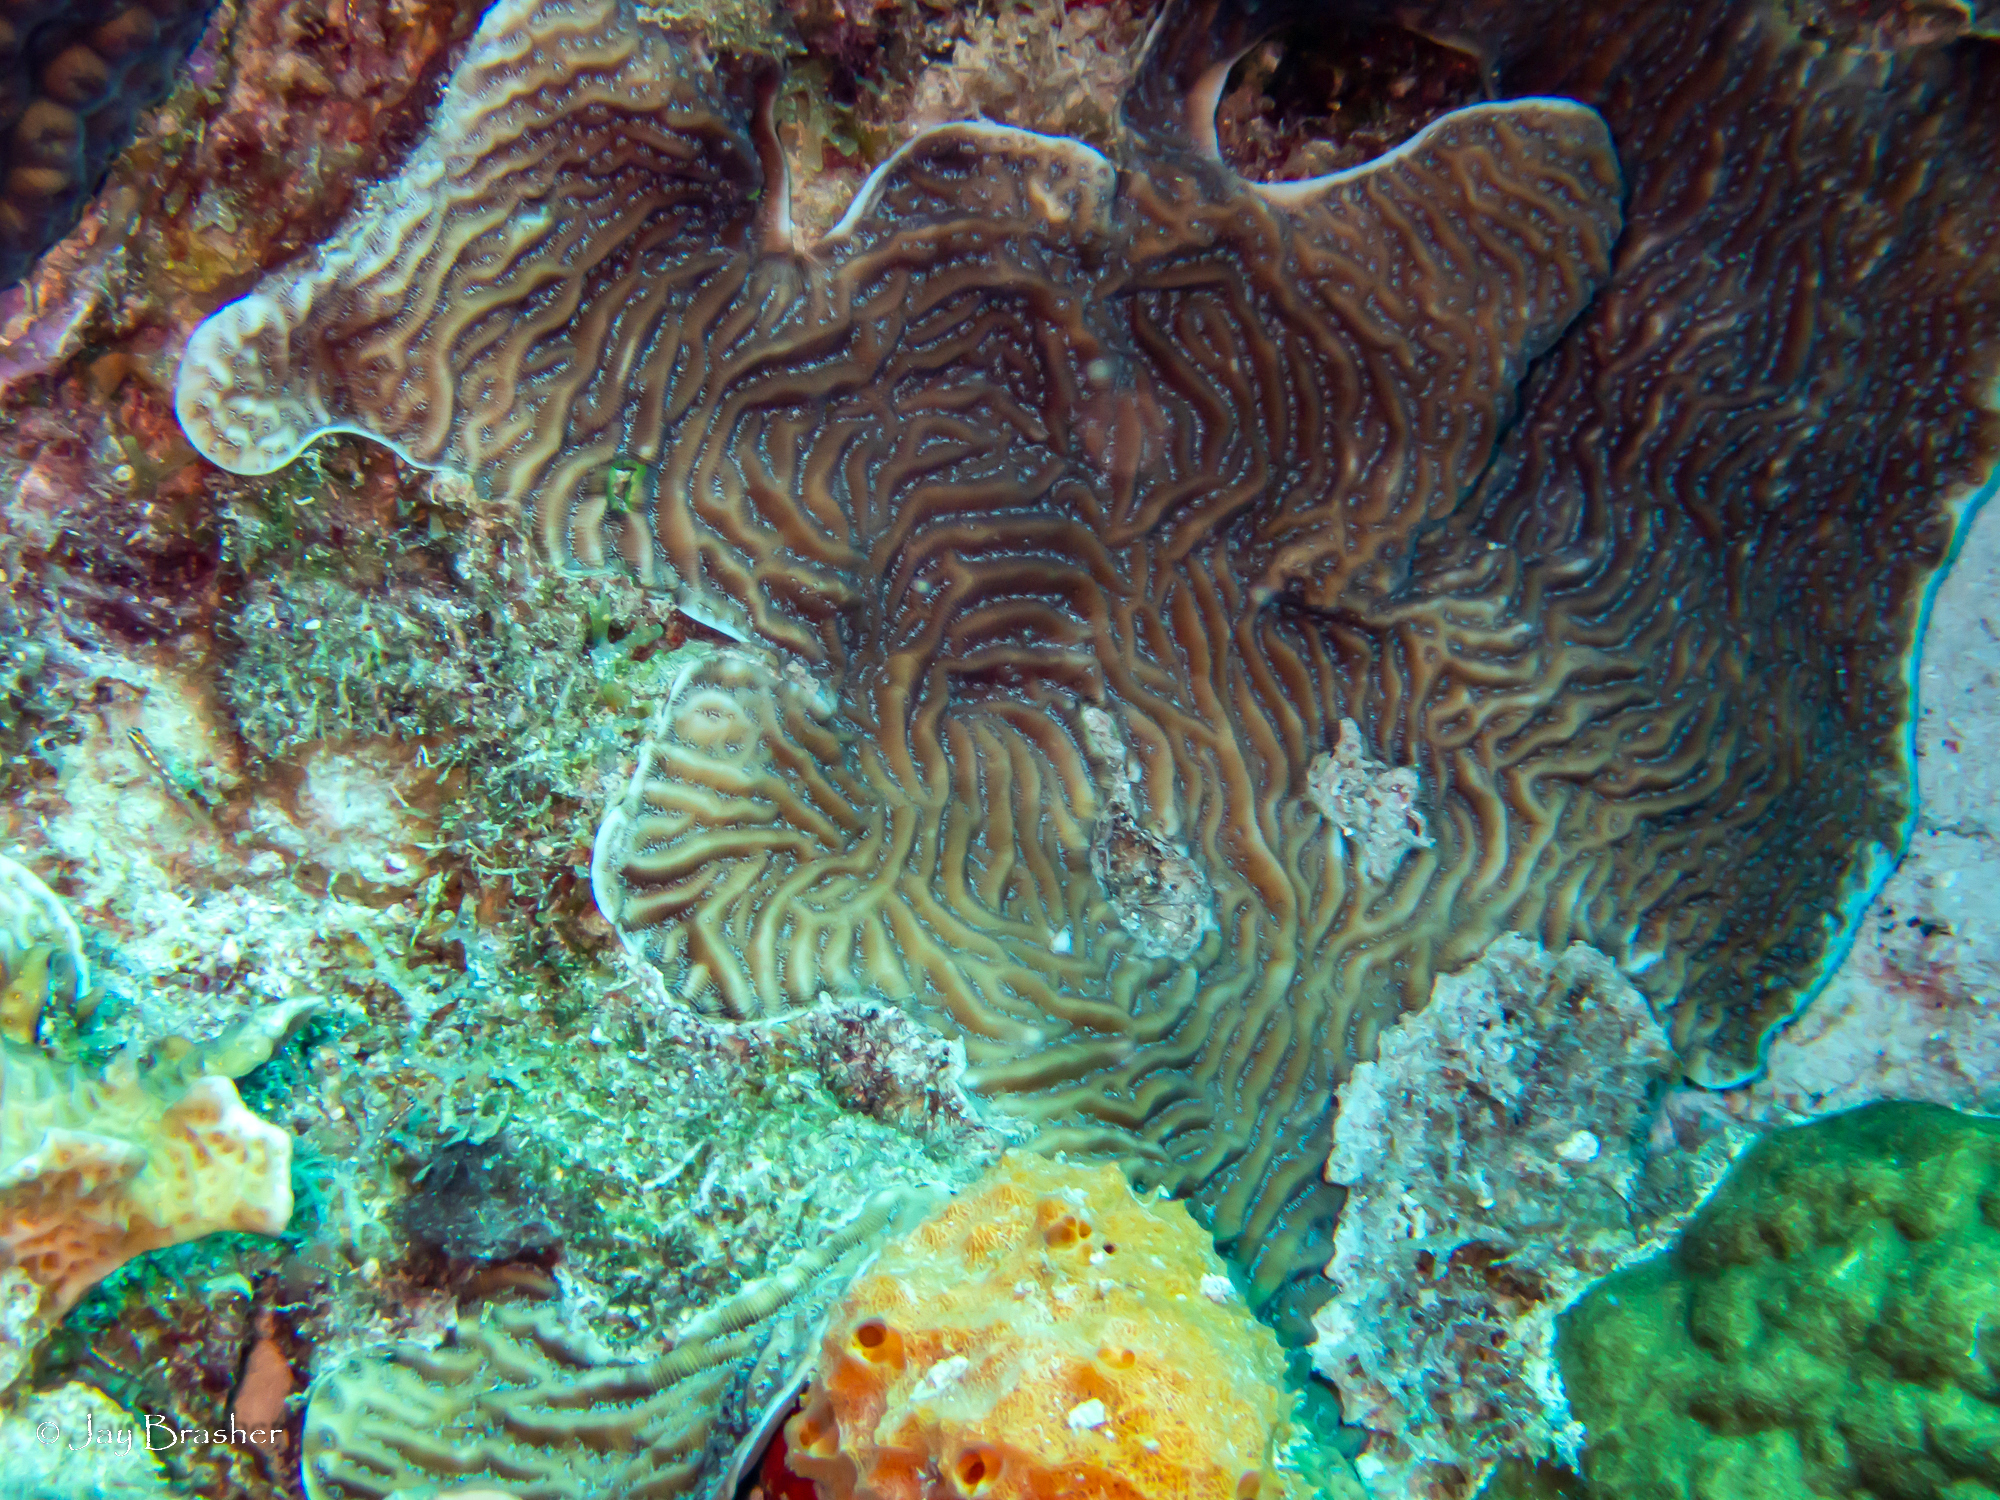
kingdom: Animalia
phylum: Cnidaria
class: Anthozoa
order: Scleractinia
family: Poritidae
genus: Porites
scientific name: Porites astreoides
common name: Mustard hill coral
